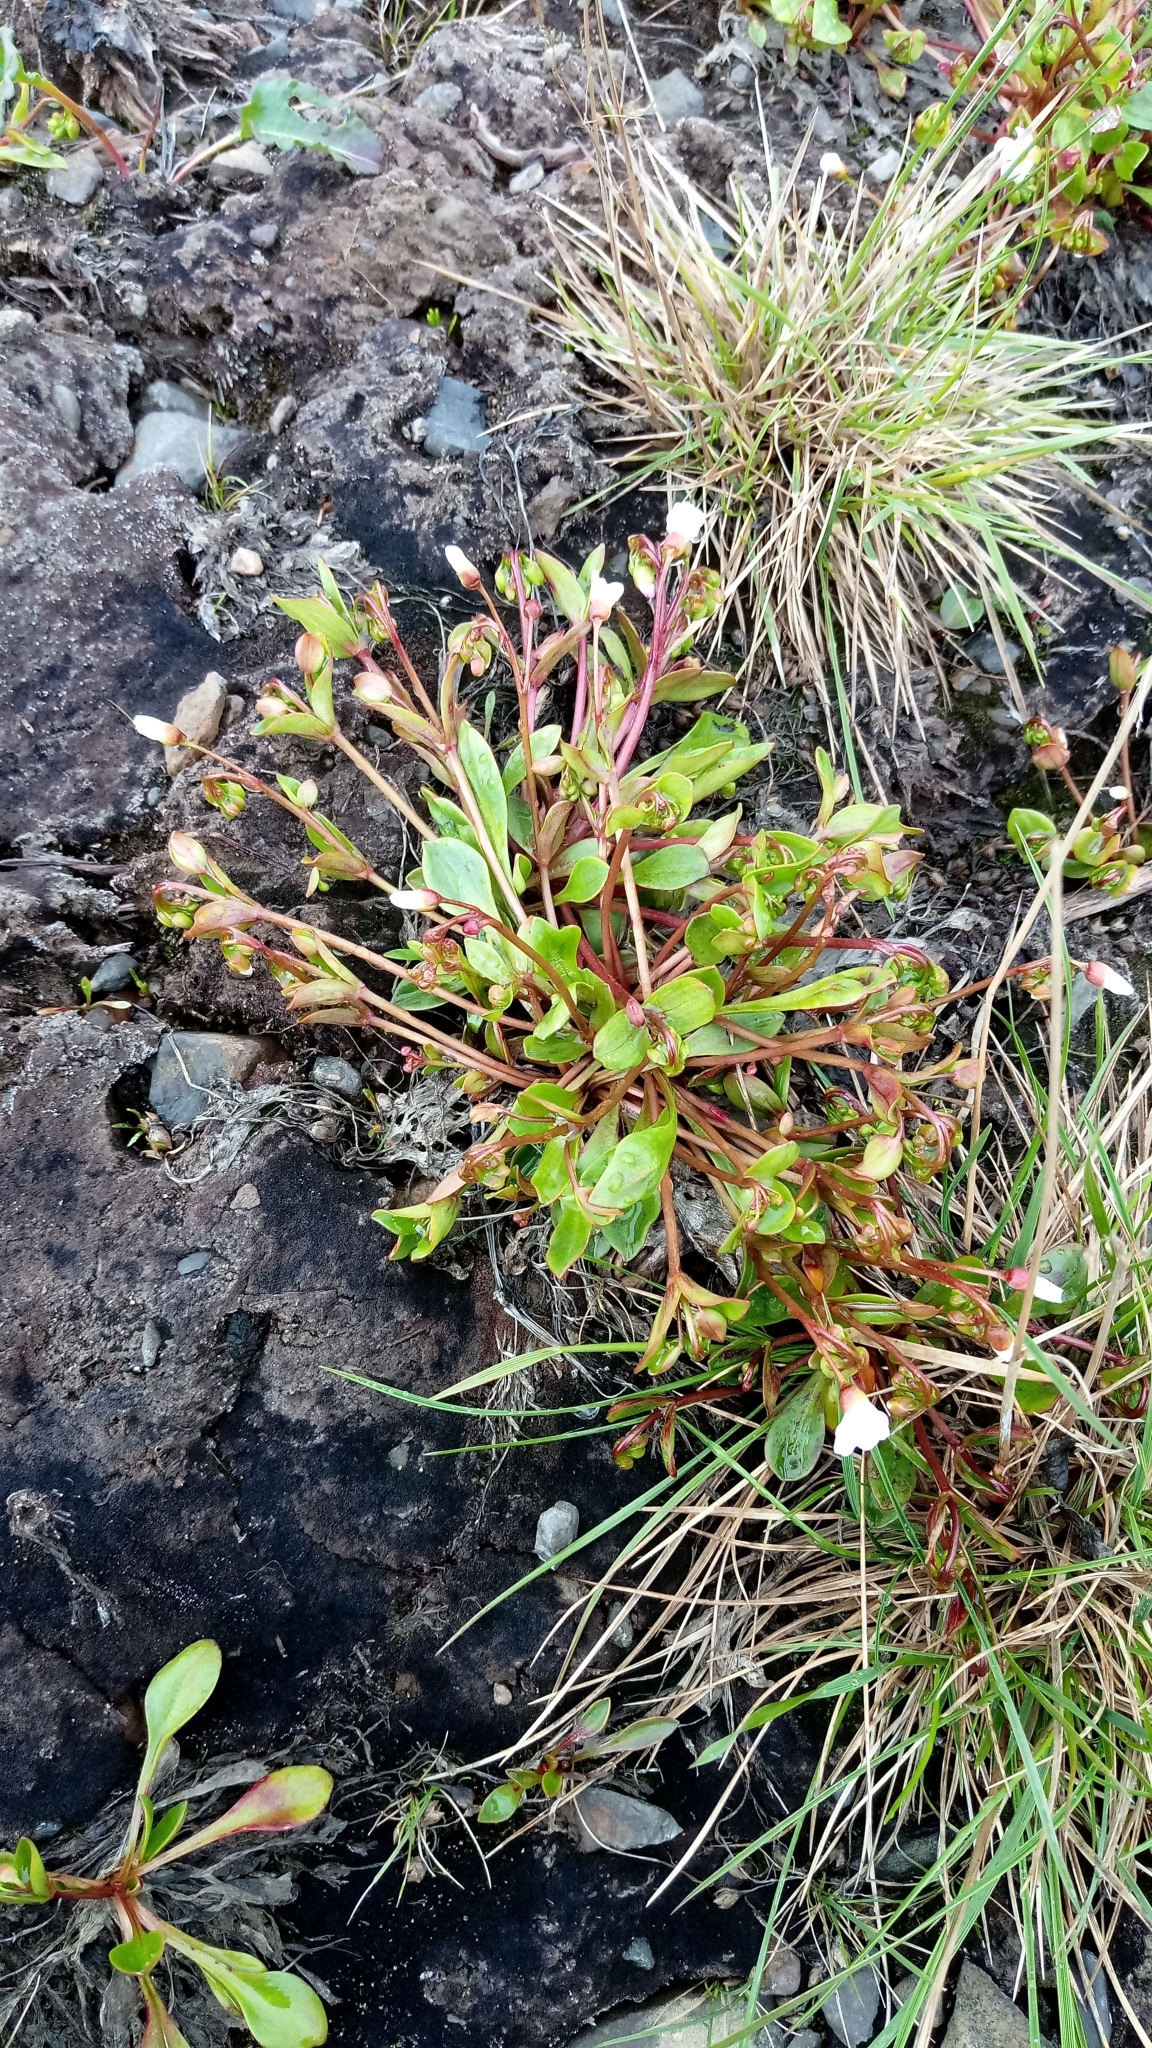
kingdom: Plantae
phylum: Tracheophyta
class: Magnoliopsida
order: Caryophyllales
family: Montiaceae
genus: Claytonia
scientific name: Claytonia joanneana
